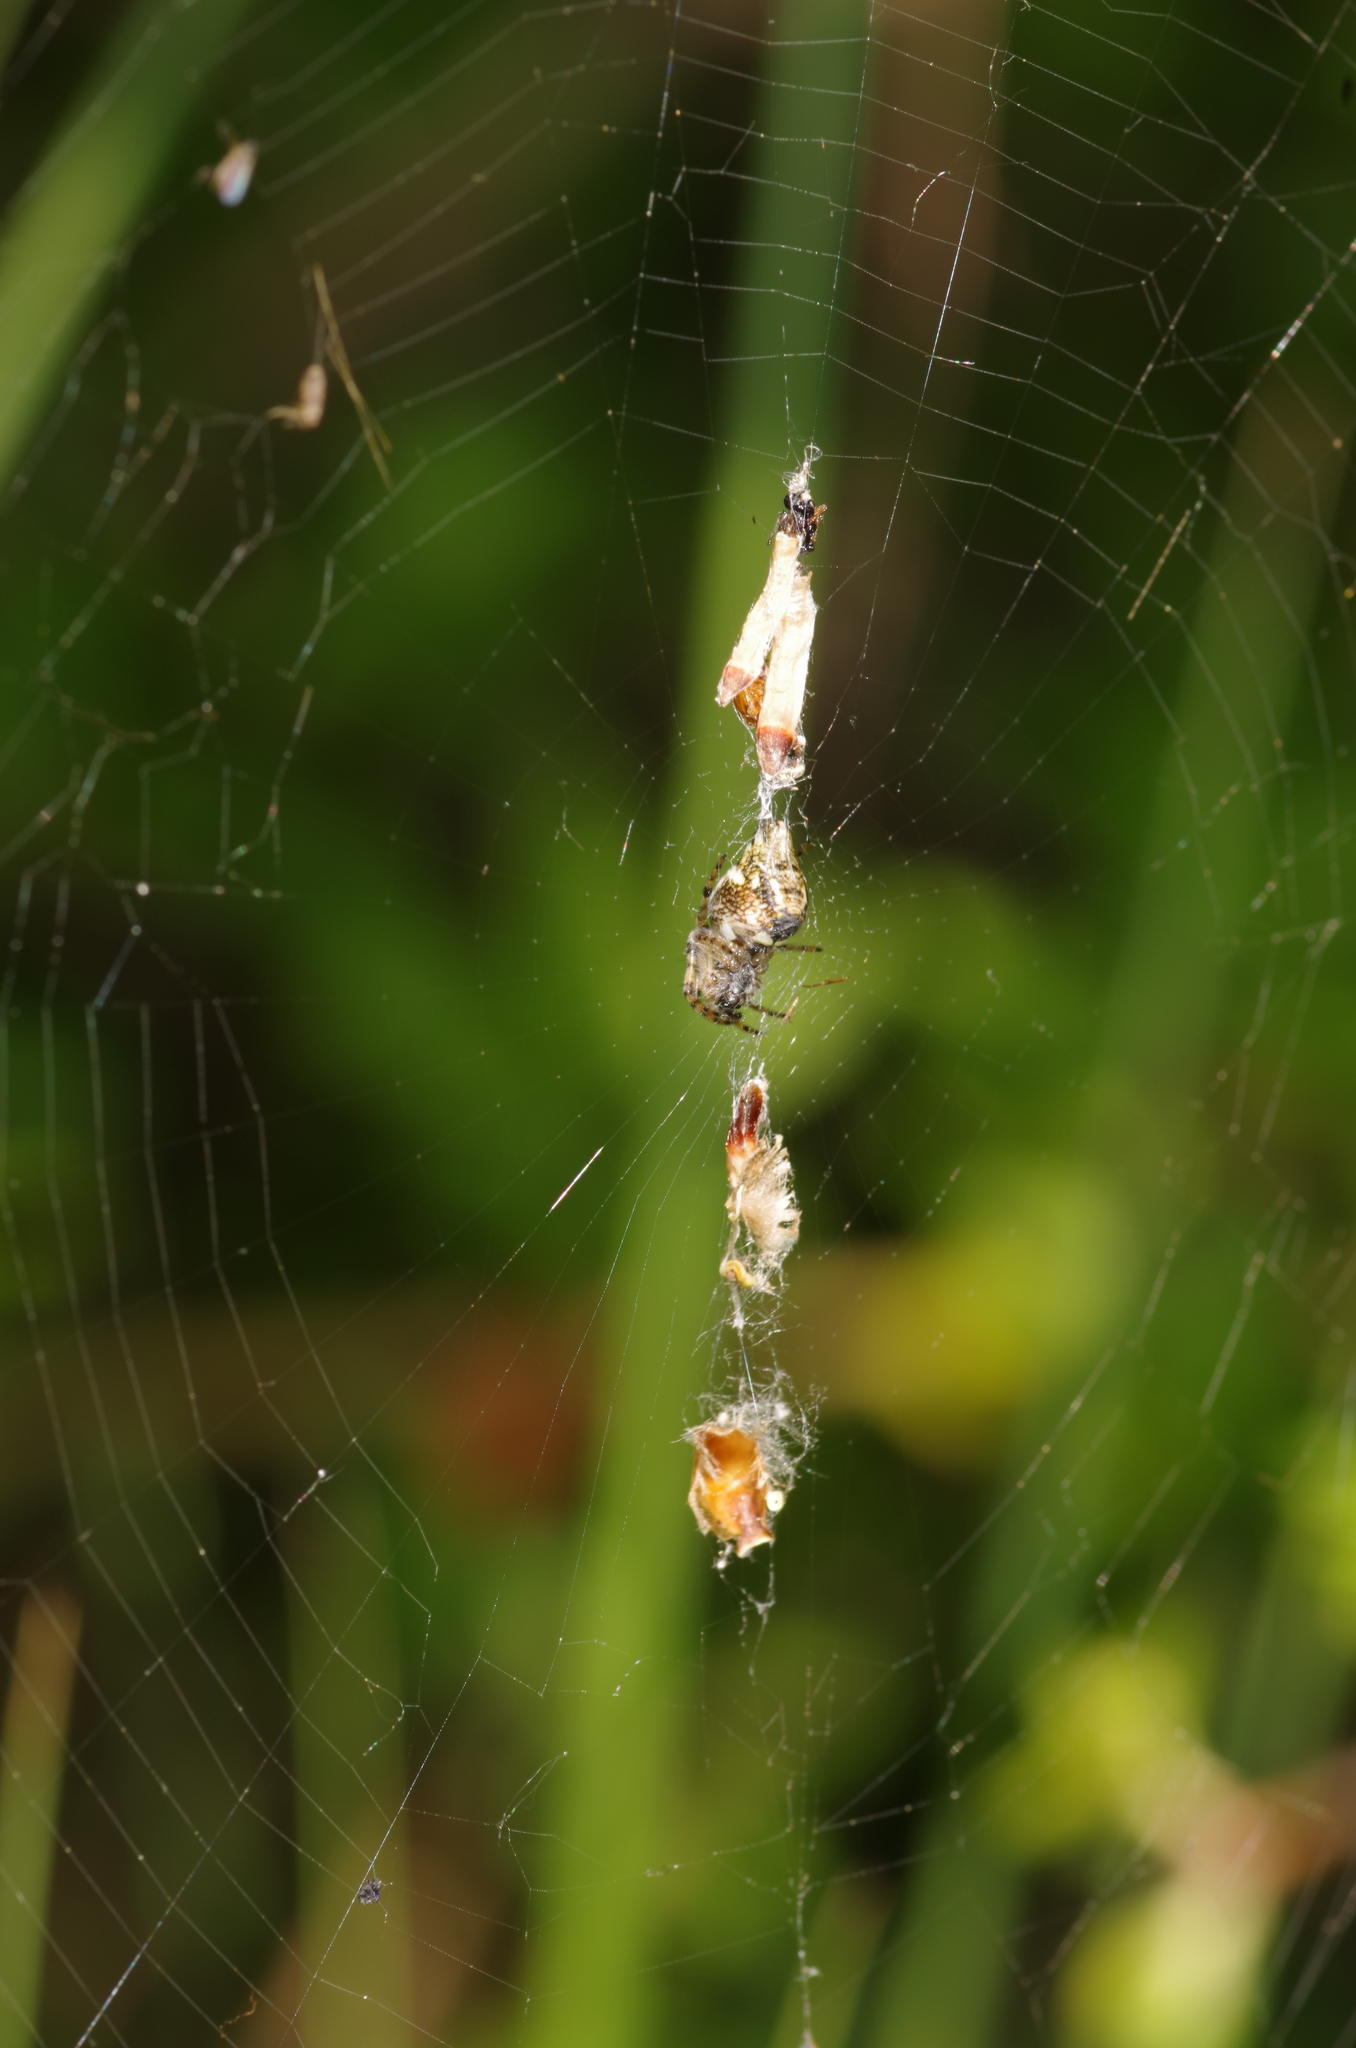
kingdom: Animalia
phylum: Arthropoda
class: Arachnida
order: Araneae
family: Araneidae
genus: Cyclosa
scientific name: Cyclosa conica
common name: Conical trashline orbweaver
